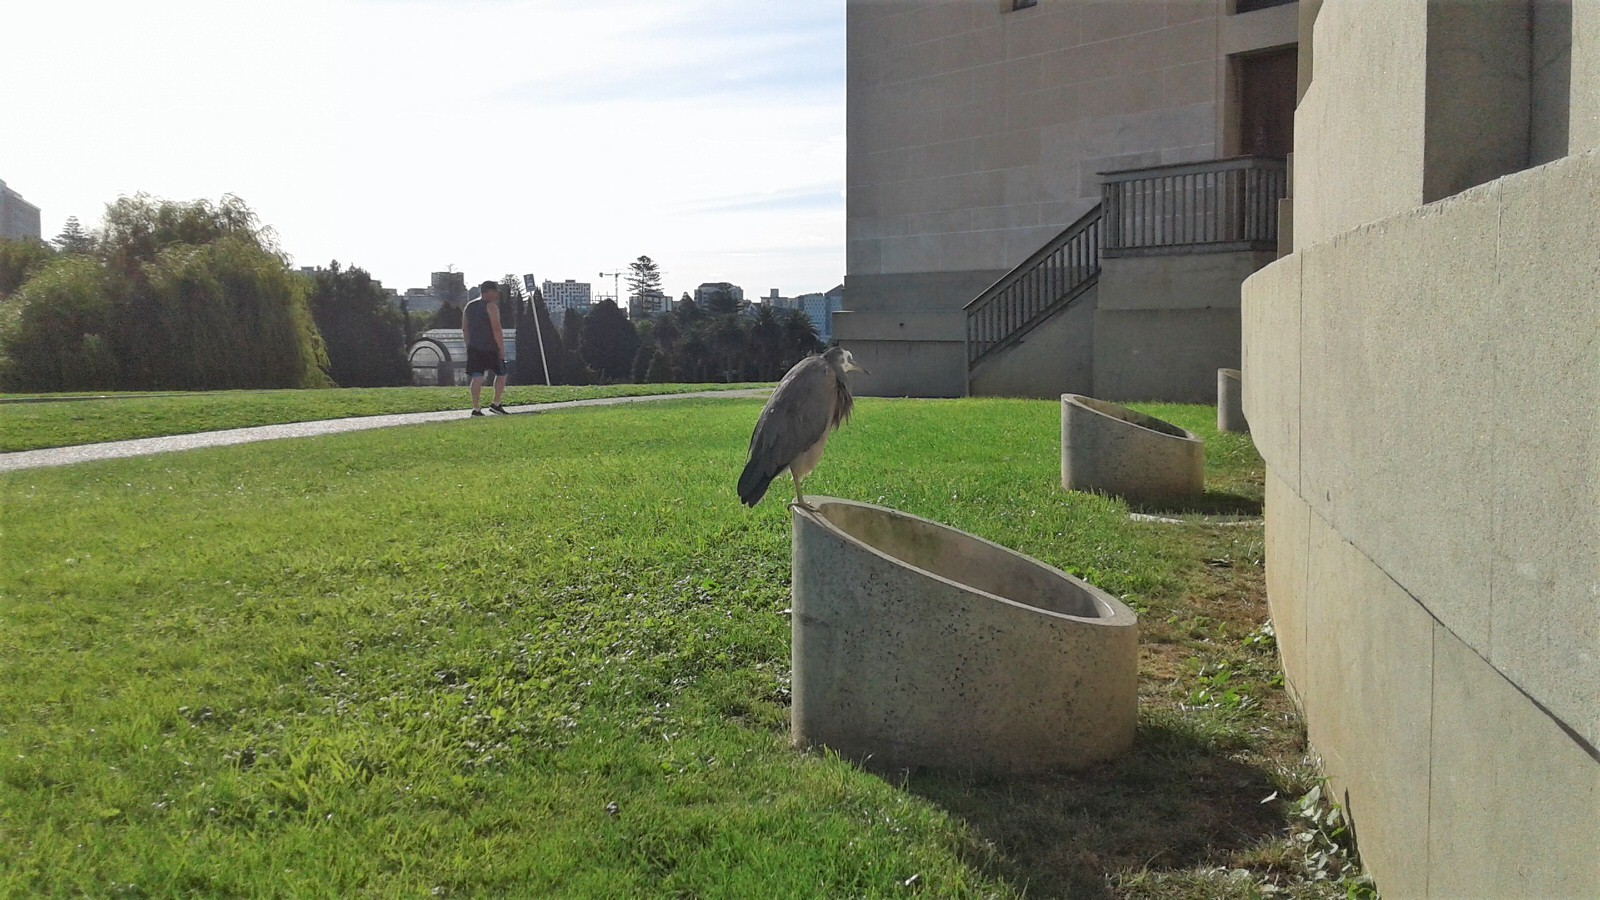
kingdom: Animalia
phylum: Chordata
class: Aves
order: Pelecaniformes
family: Ardeidae
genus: Egretta
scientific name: Egretta novaehollandiae
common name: White-faced heron
